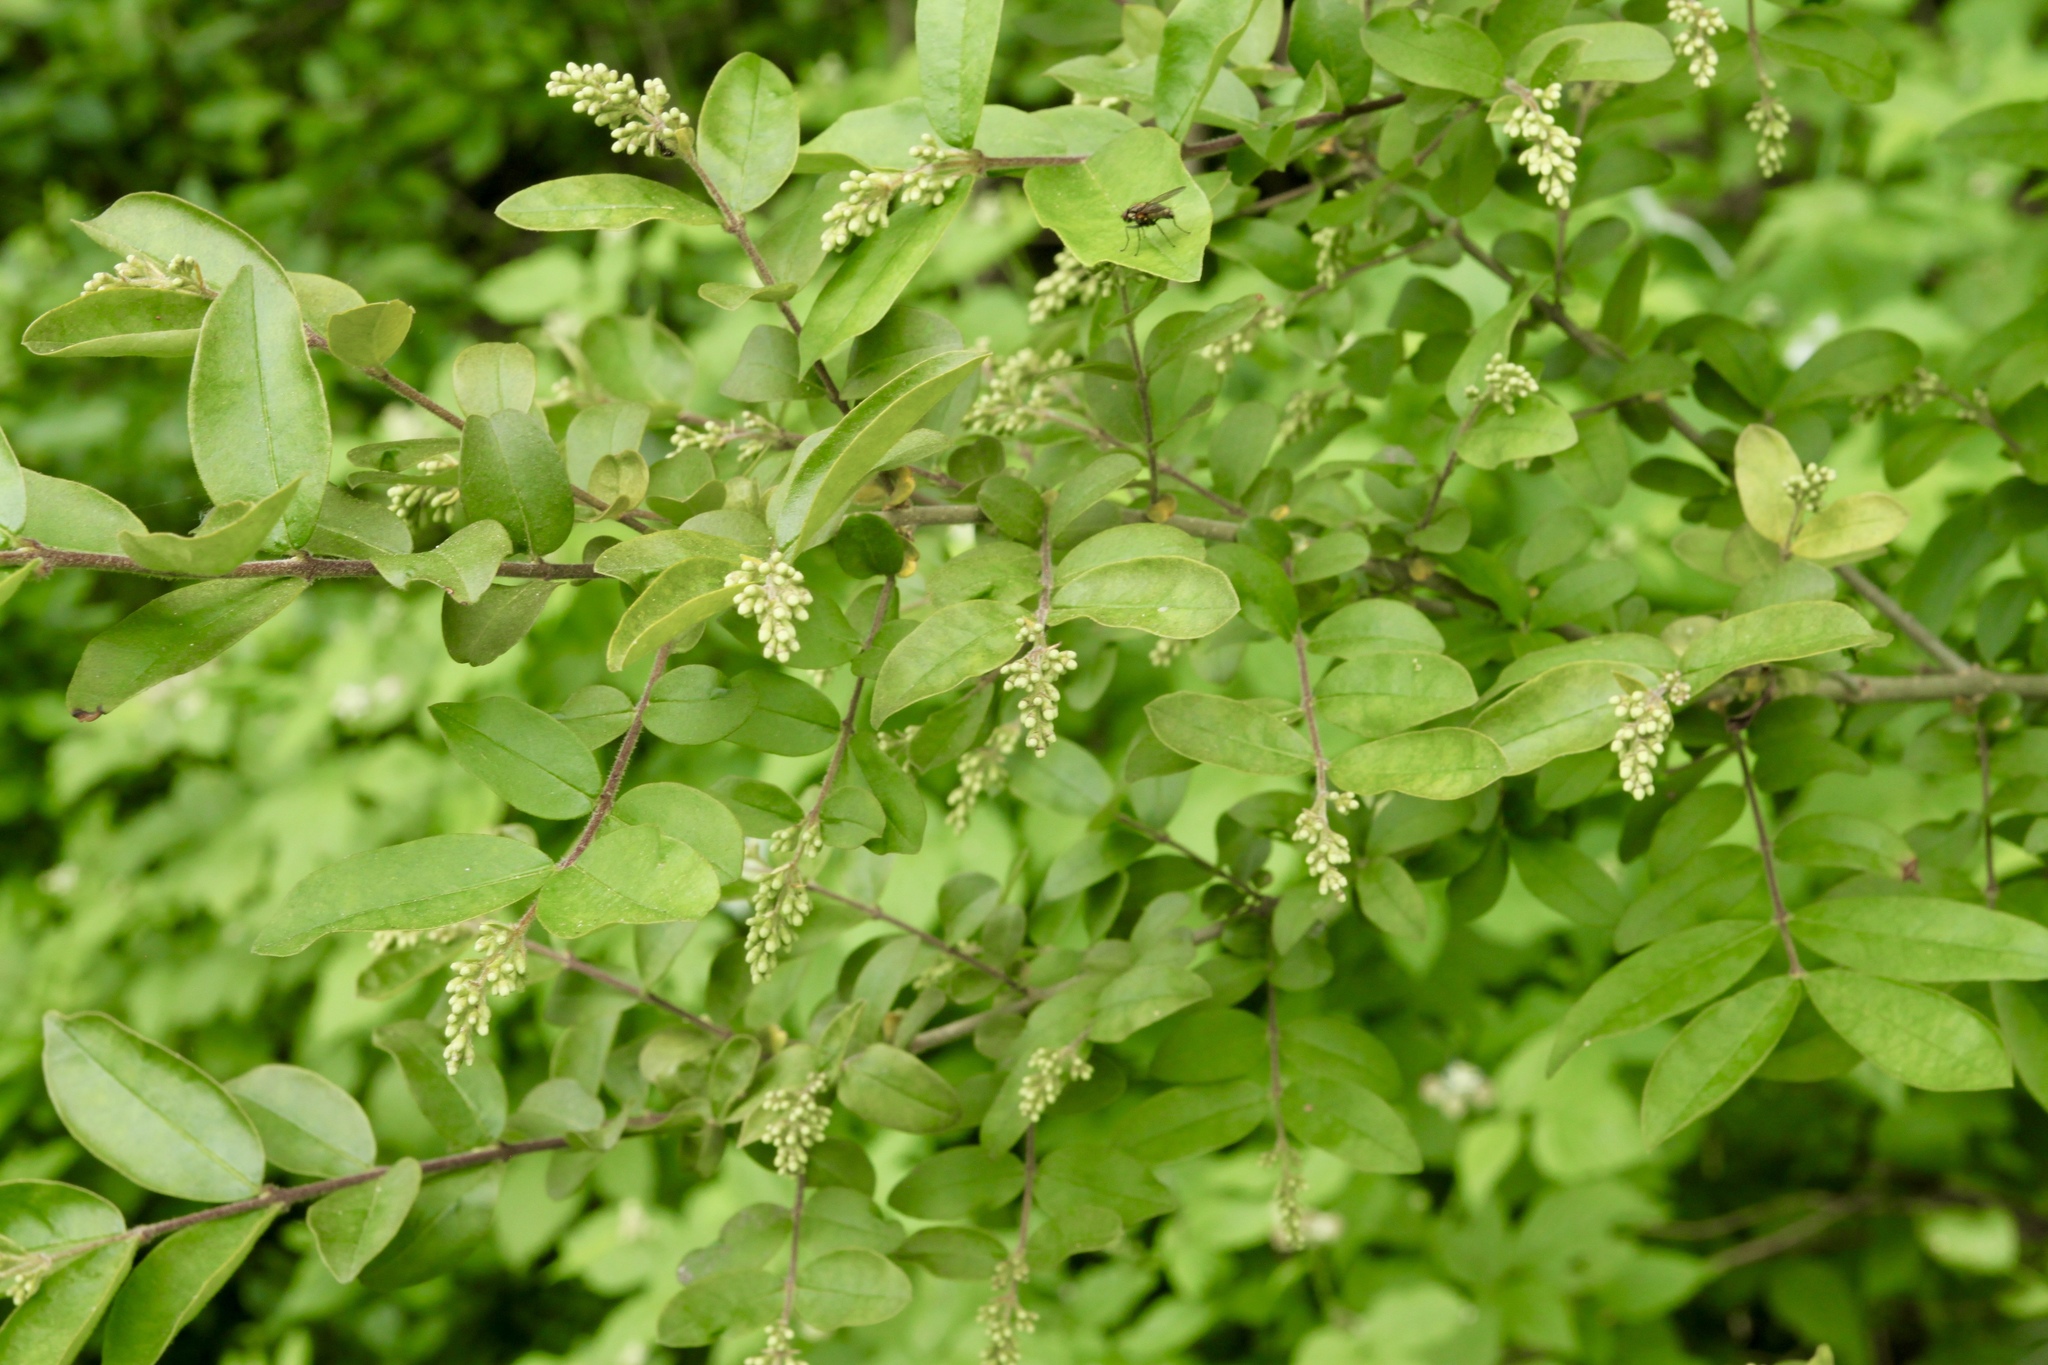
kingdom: Plantae
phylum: Tracheophyta
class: Magnoliopsida
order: Lamiales
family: Oleaceae
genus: Ligustrum
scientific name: Ligustrum obtusifolium
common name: Border privet
